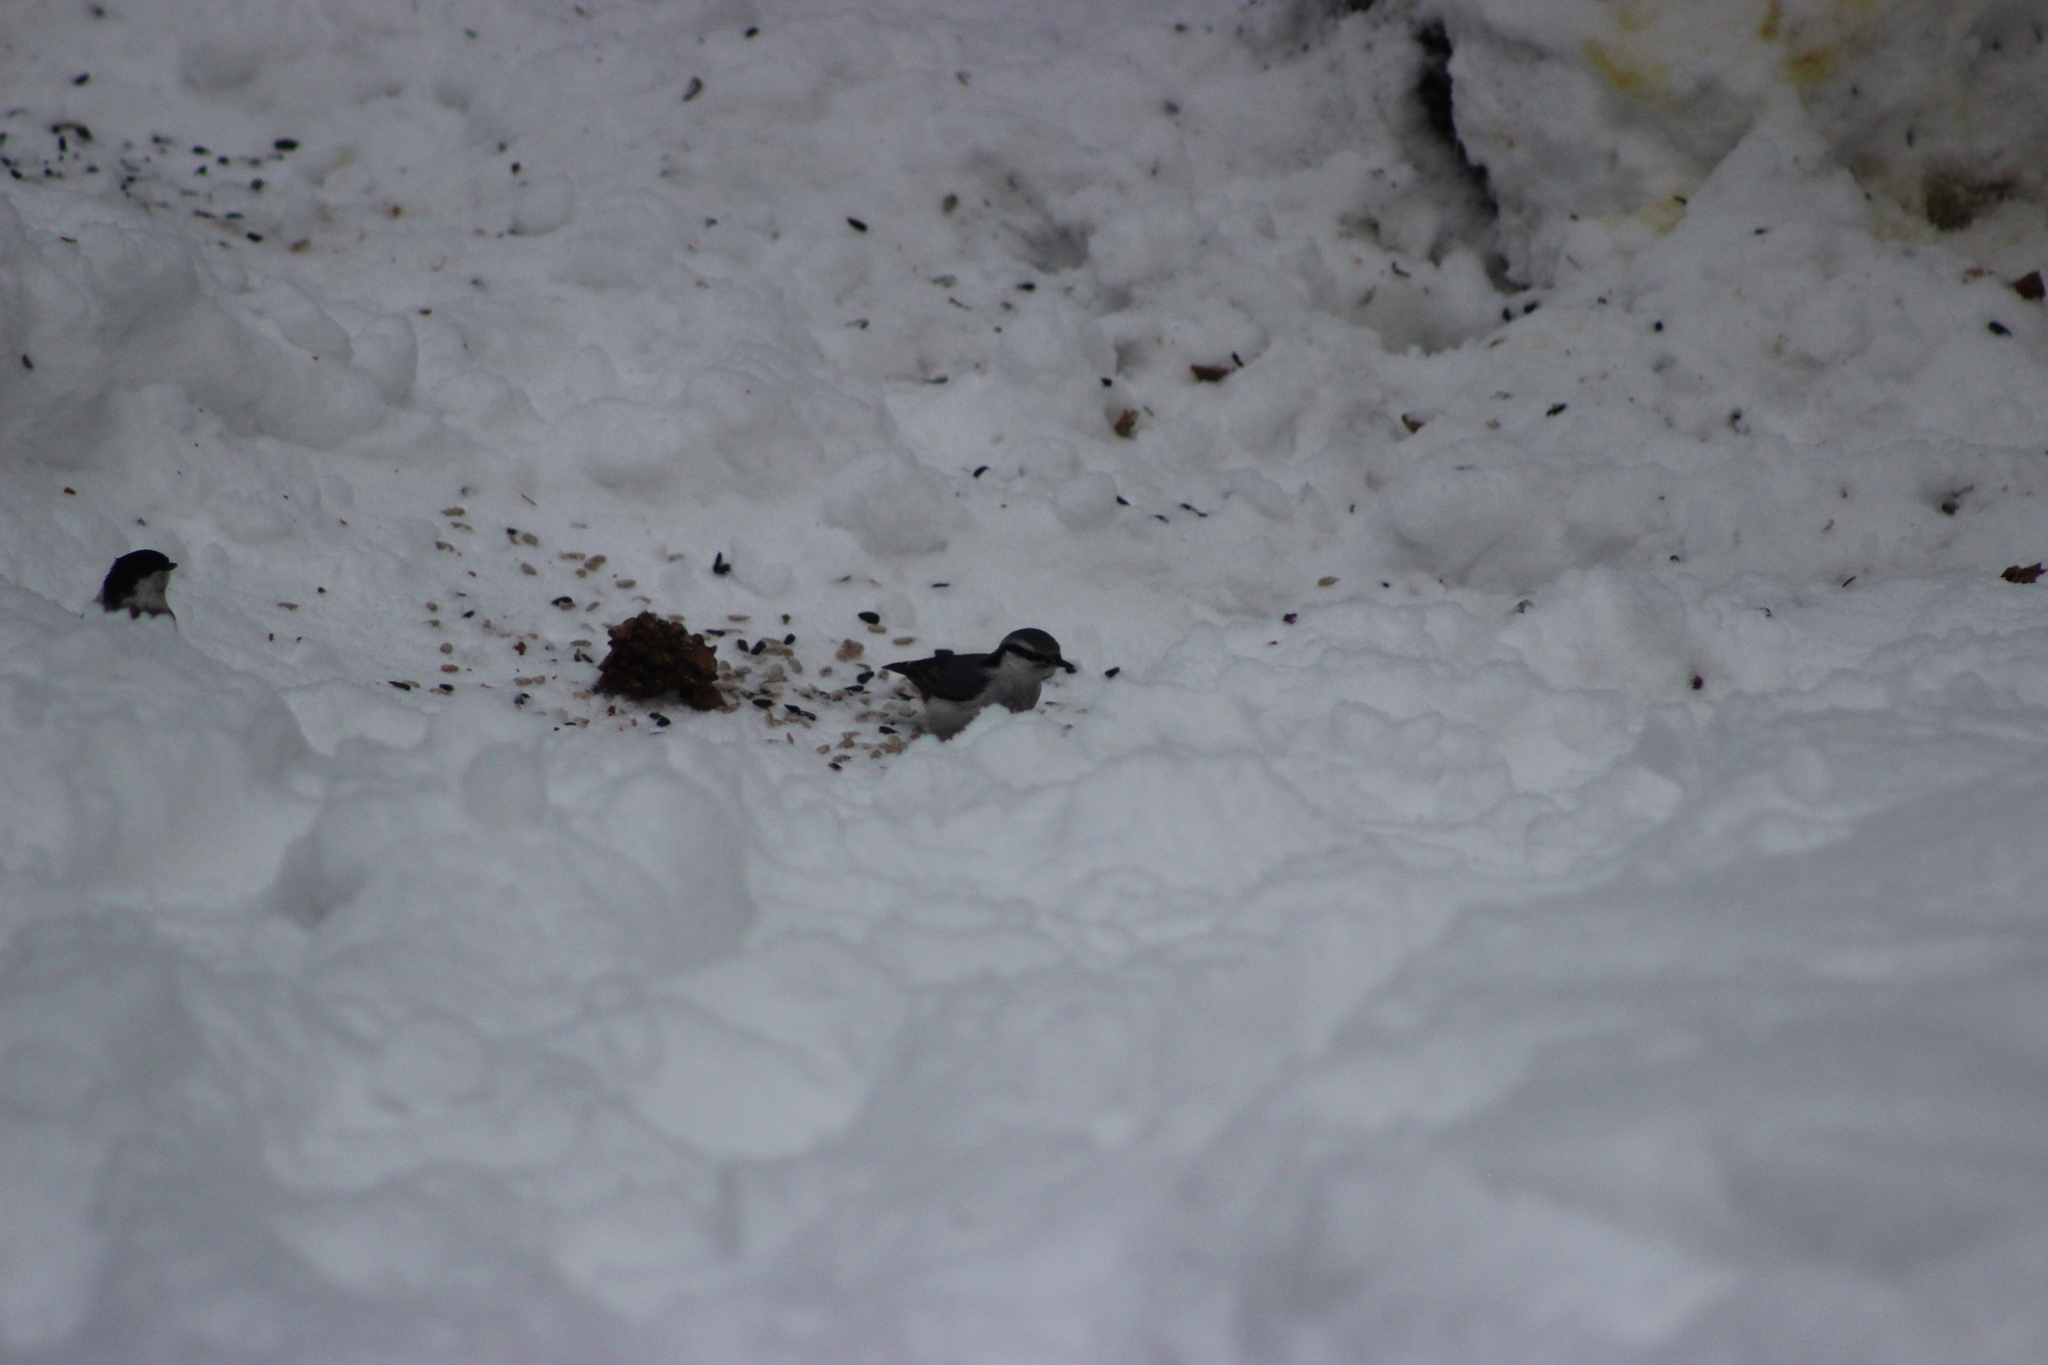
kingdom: Animalia
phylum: Chordata
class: Aves
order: Passeriformes
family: Sittidae
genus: Sitta
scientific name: Sitta europaea
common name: Eurasian nuthatch
